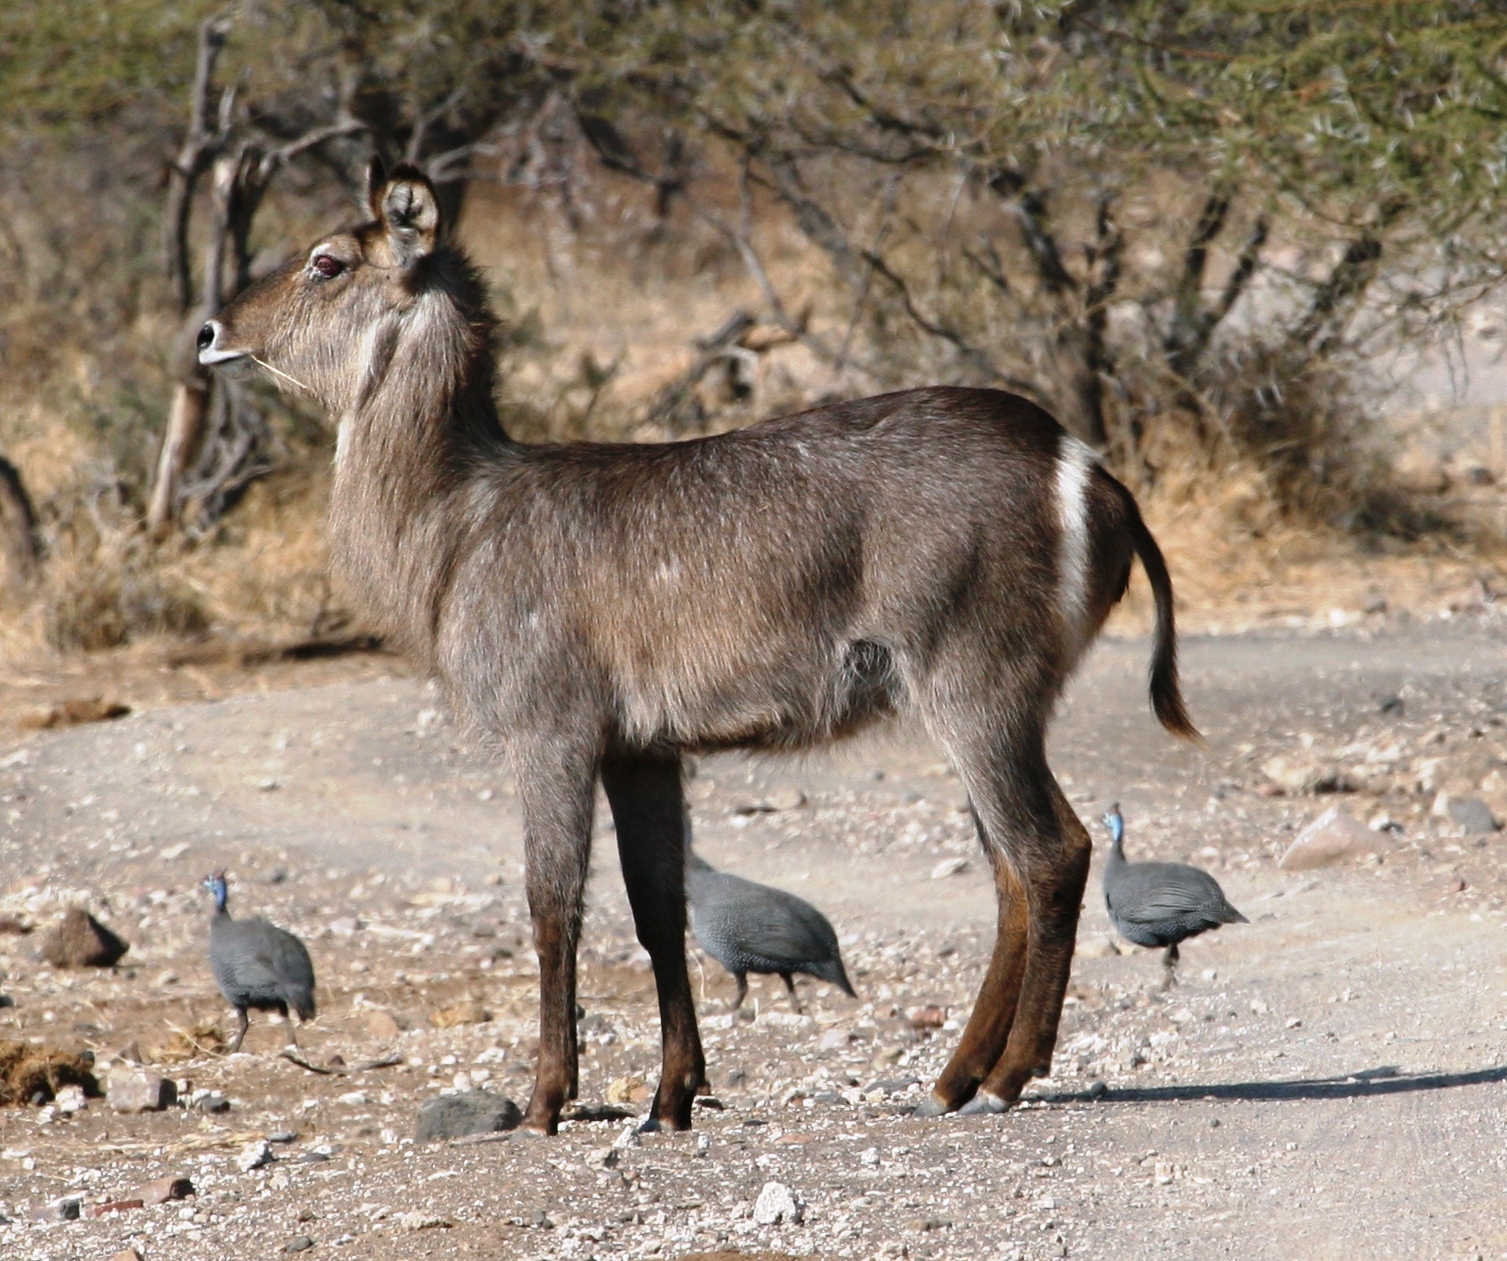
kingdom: Animalia
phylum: Chordata
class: Mammalia
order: Artiodactyla
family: Bovidae
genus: Kobus
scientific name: Kobus ellipsiprymnus
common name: Waterbuck
